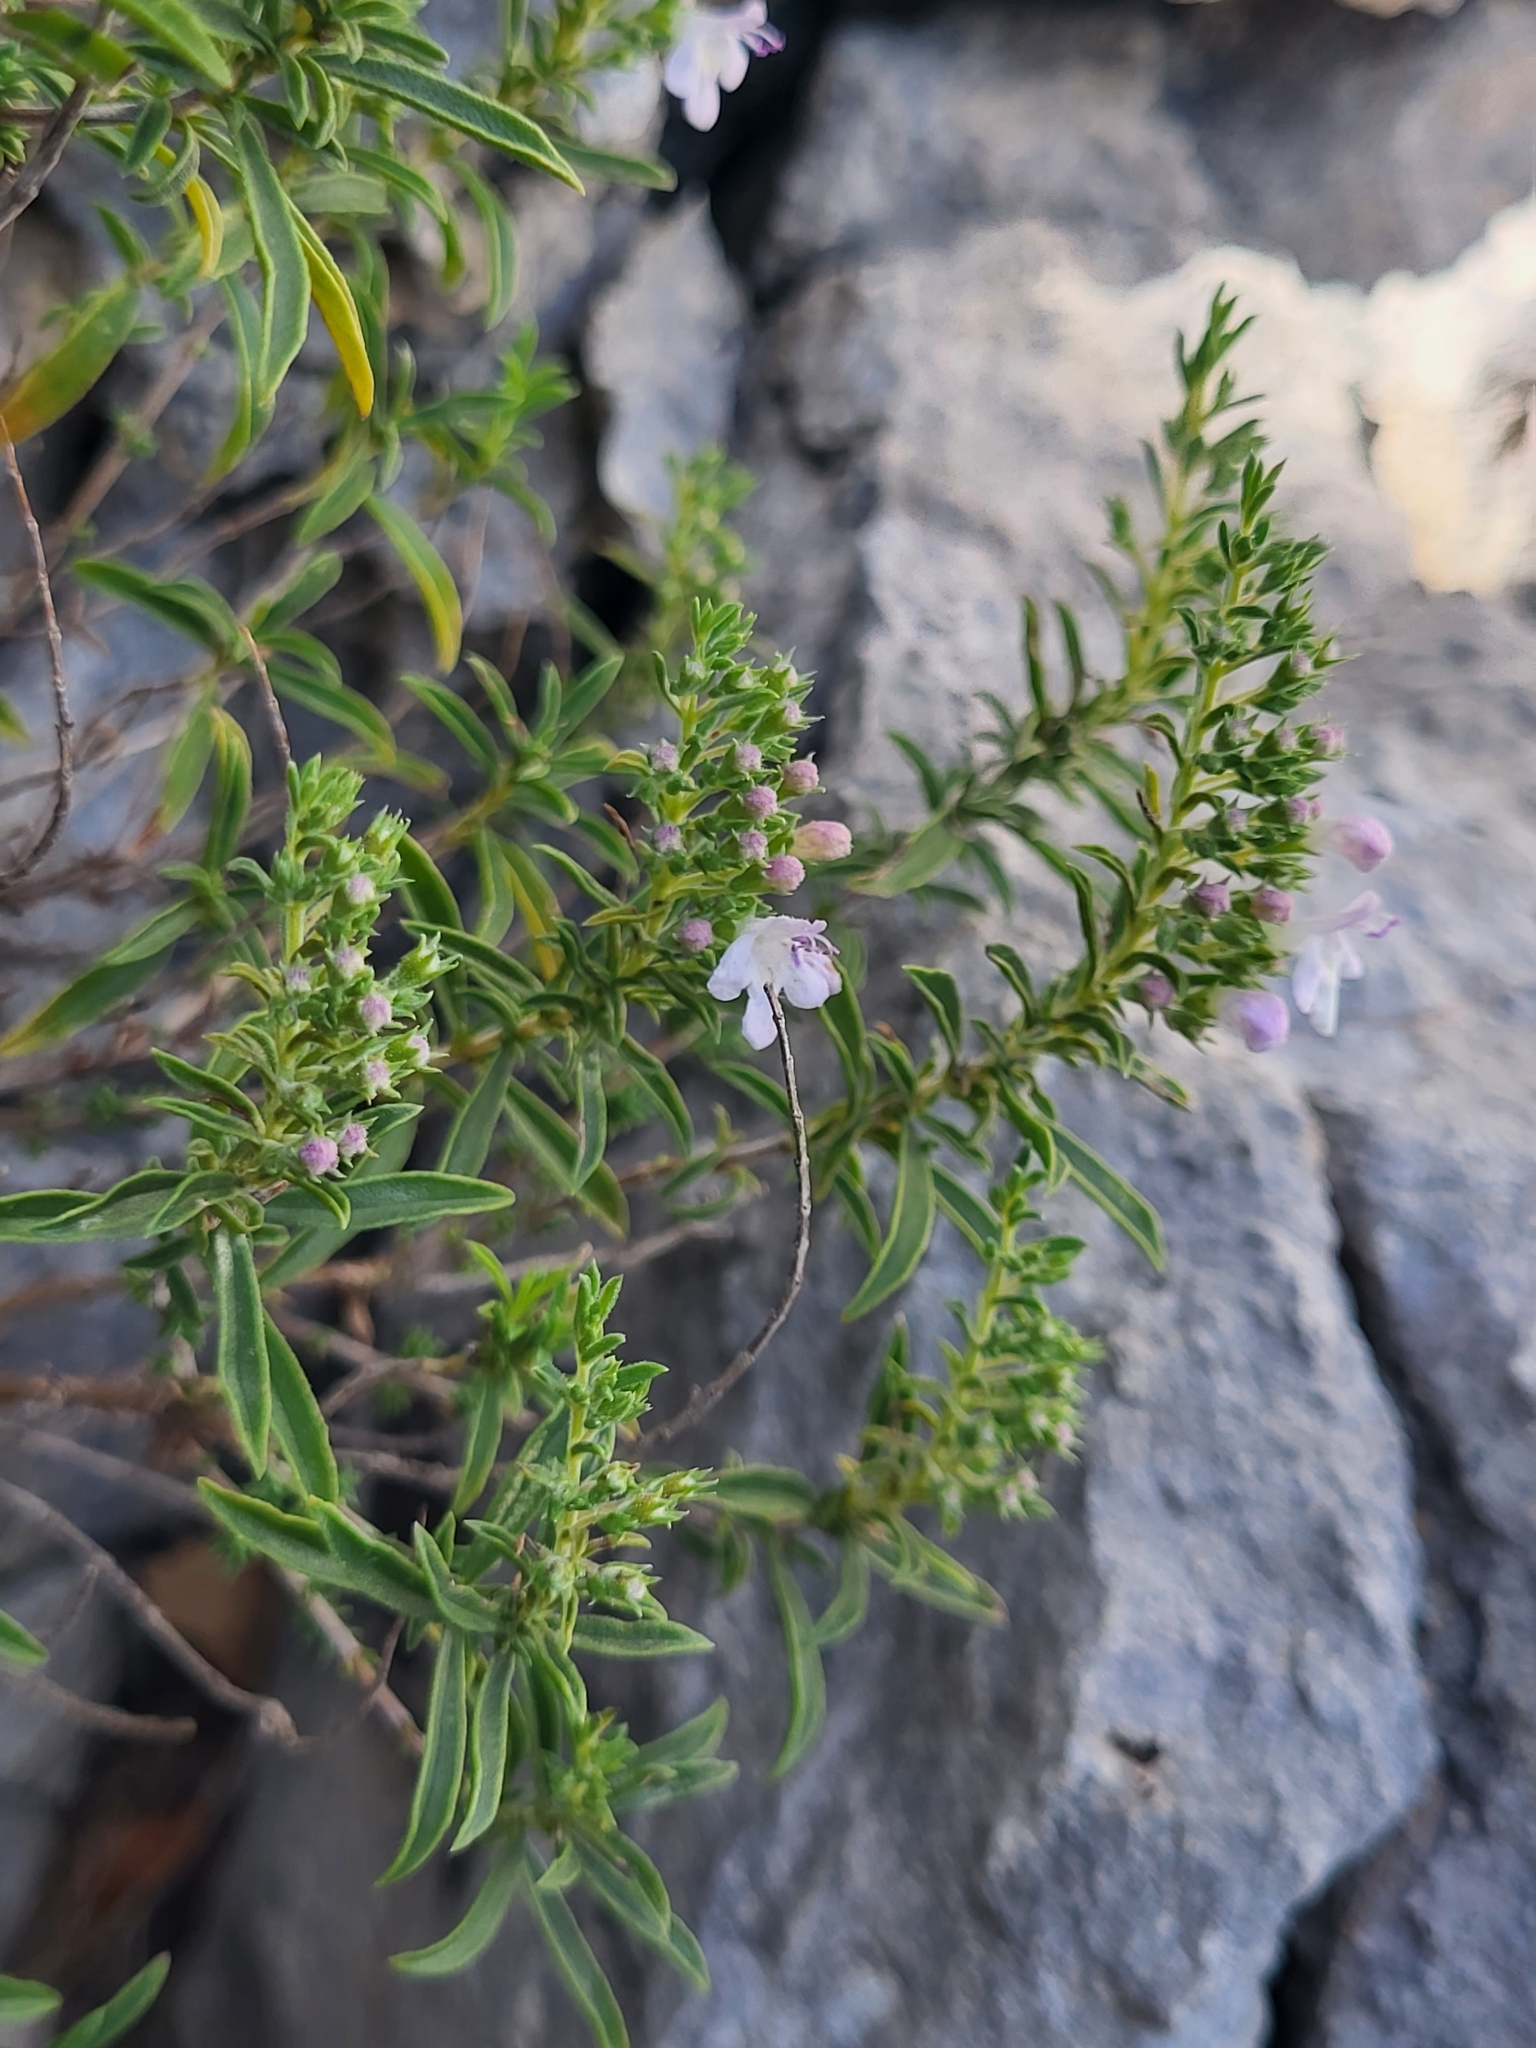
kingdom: Plantae
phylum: Tracheophyta
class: Magnoliopsida
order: Lamiales
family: Lamiaceae
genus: Satureja
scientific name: Satureja montana
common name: Winter savory
